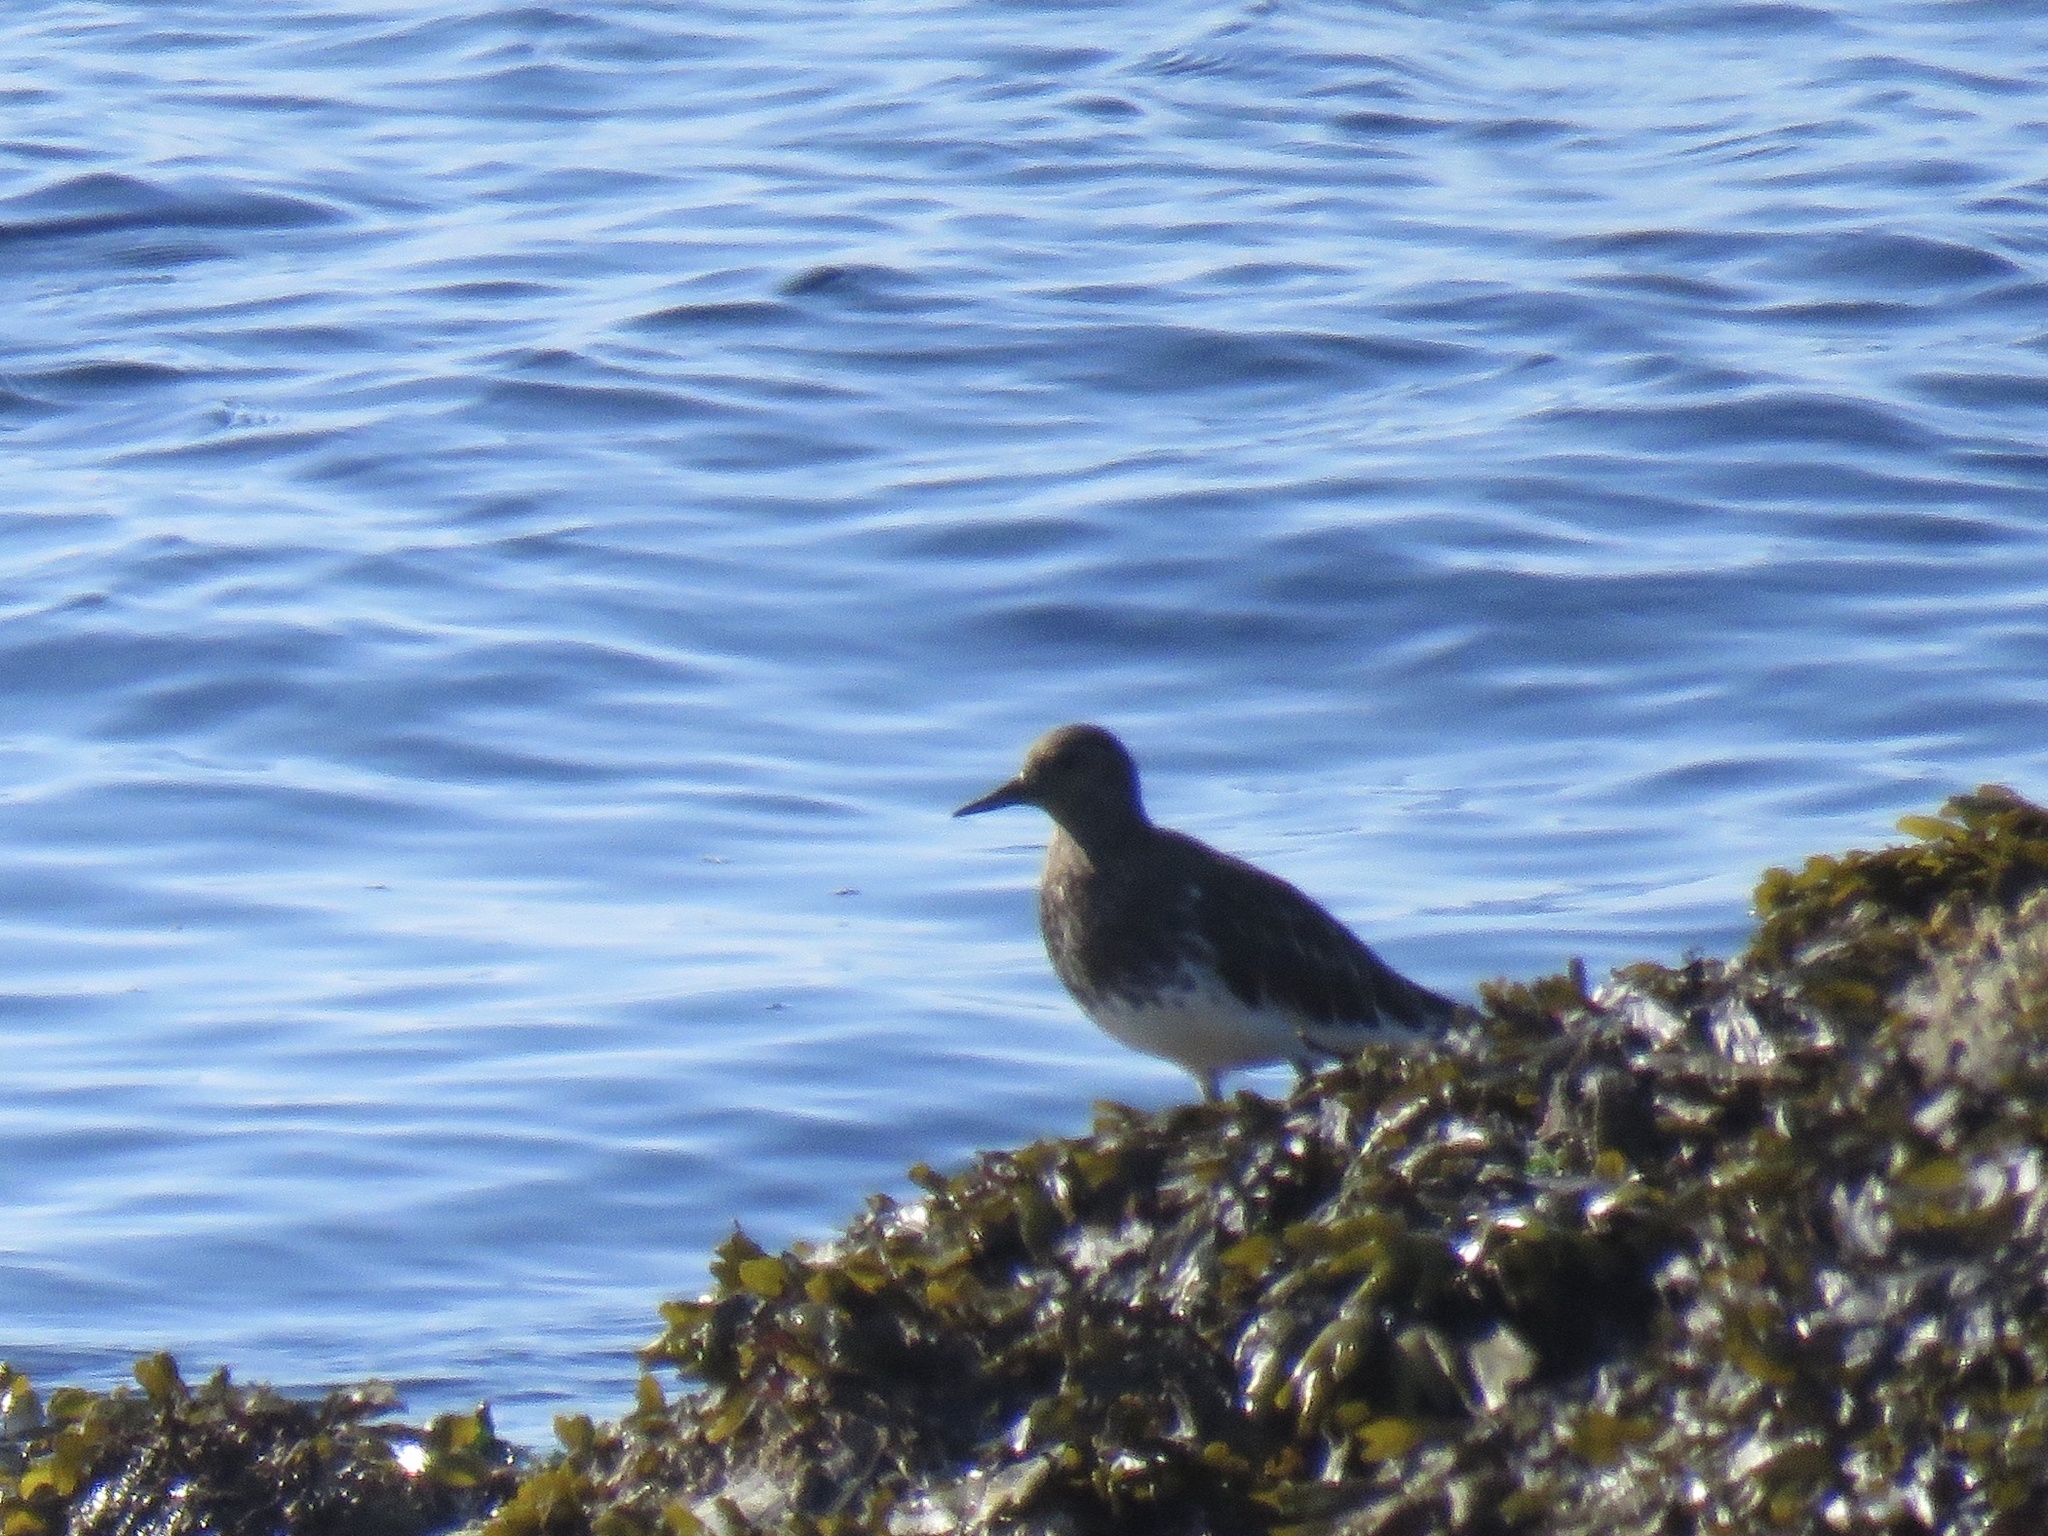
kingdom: Animalia
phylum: Chordata
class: Aves
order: Charadriiformes
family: Scolopacidae
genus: Arenaria
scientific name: Arenaria melanocephala
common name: Black turnstone
